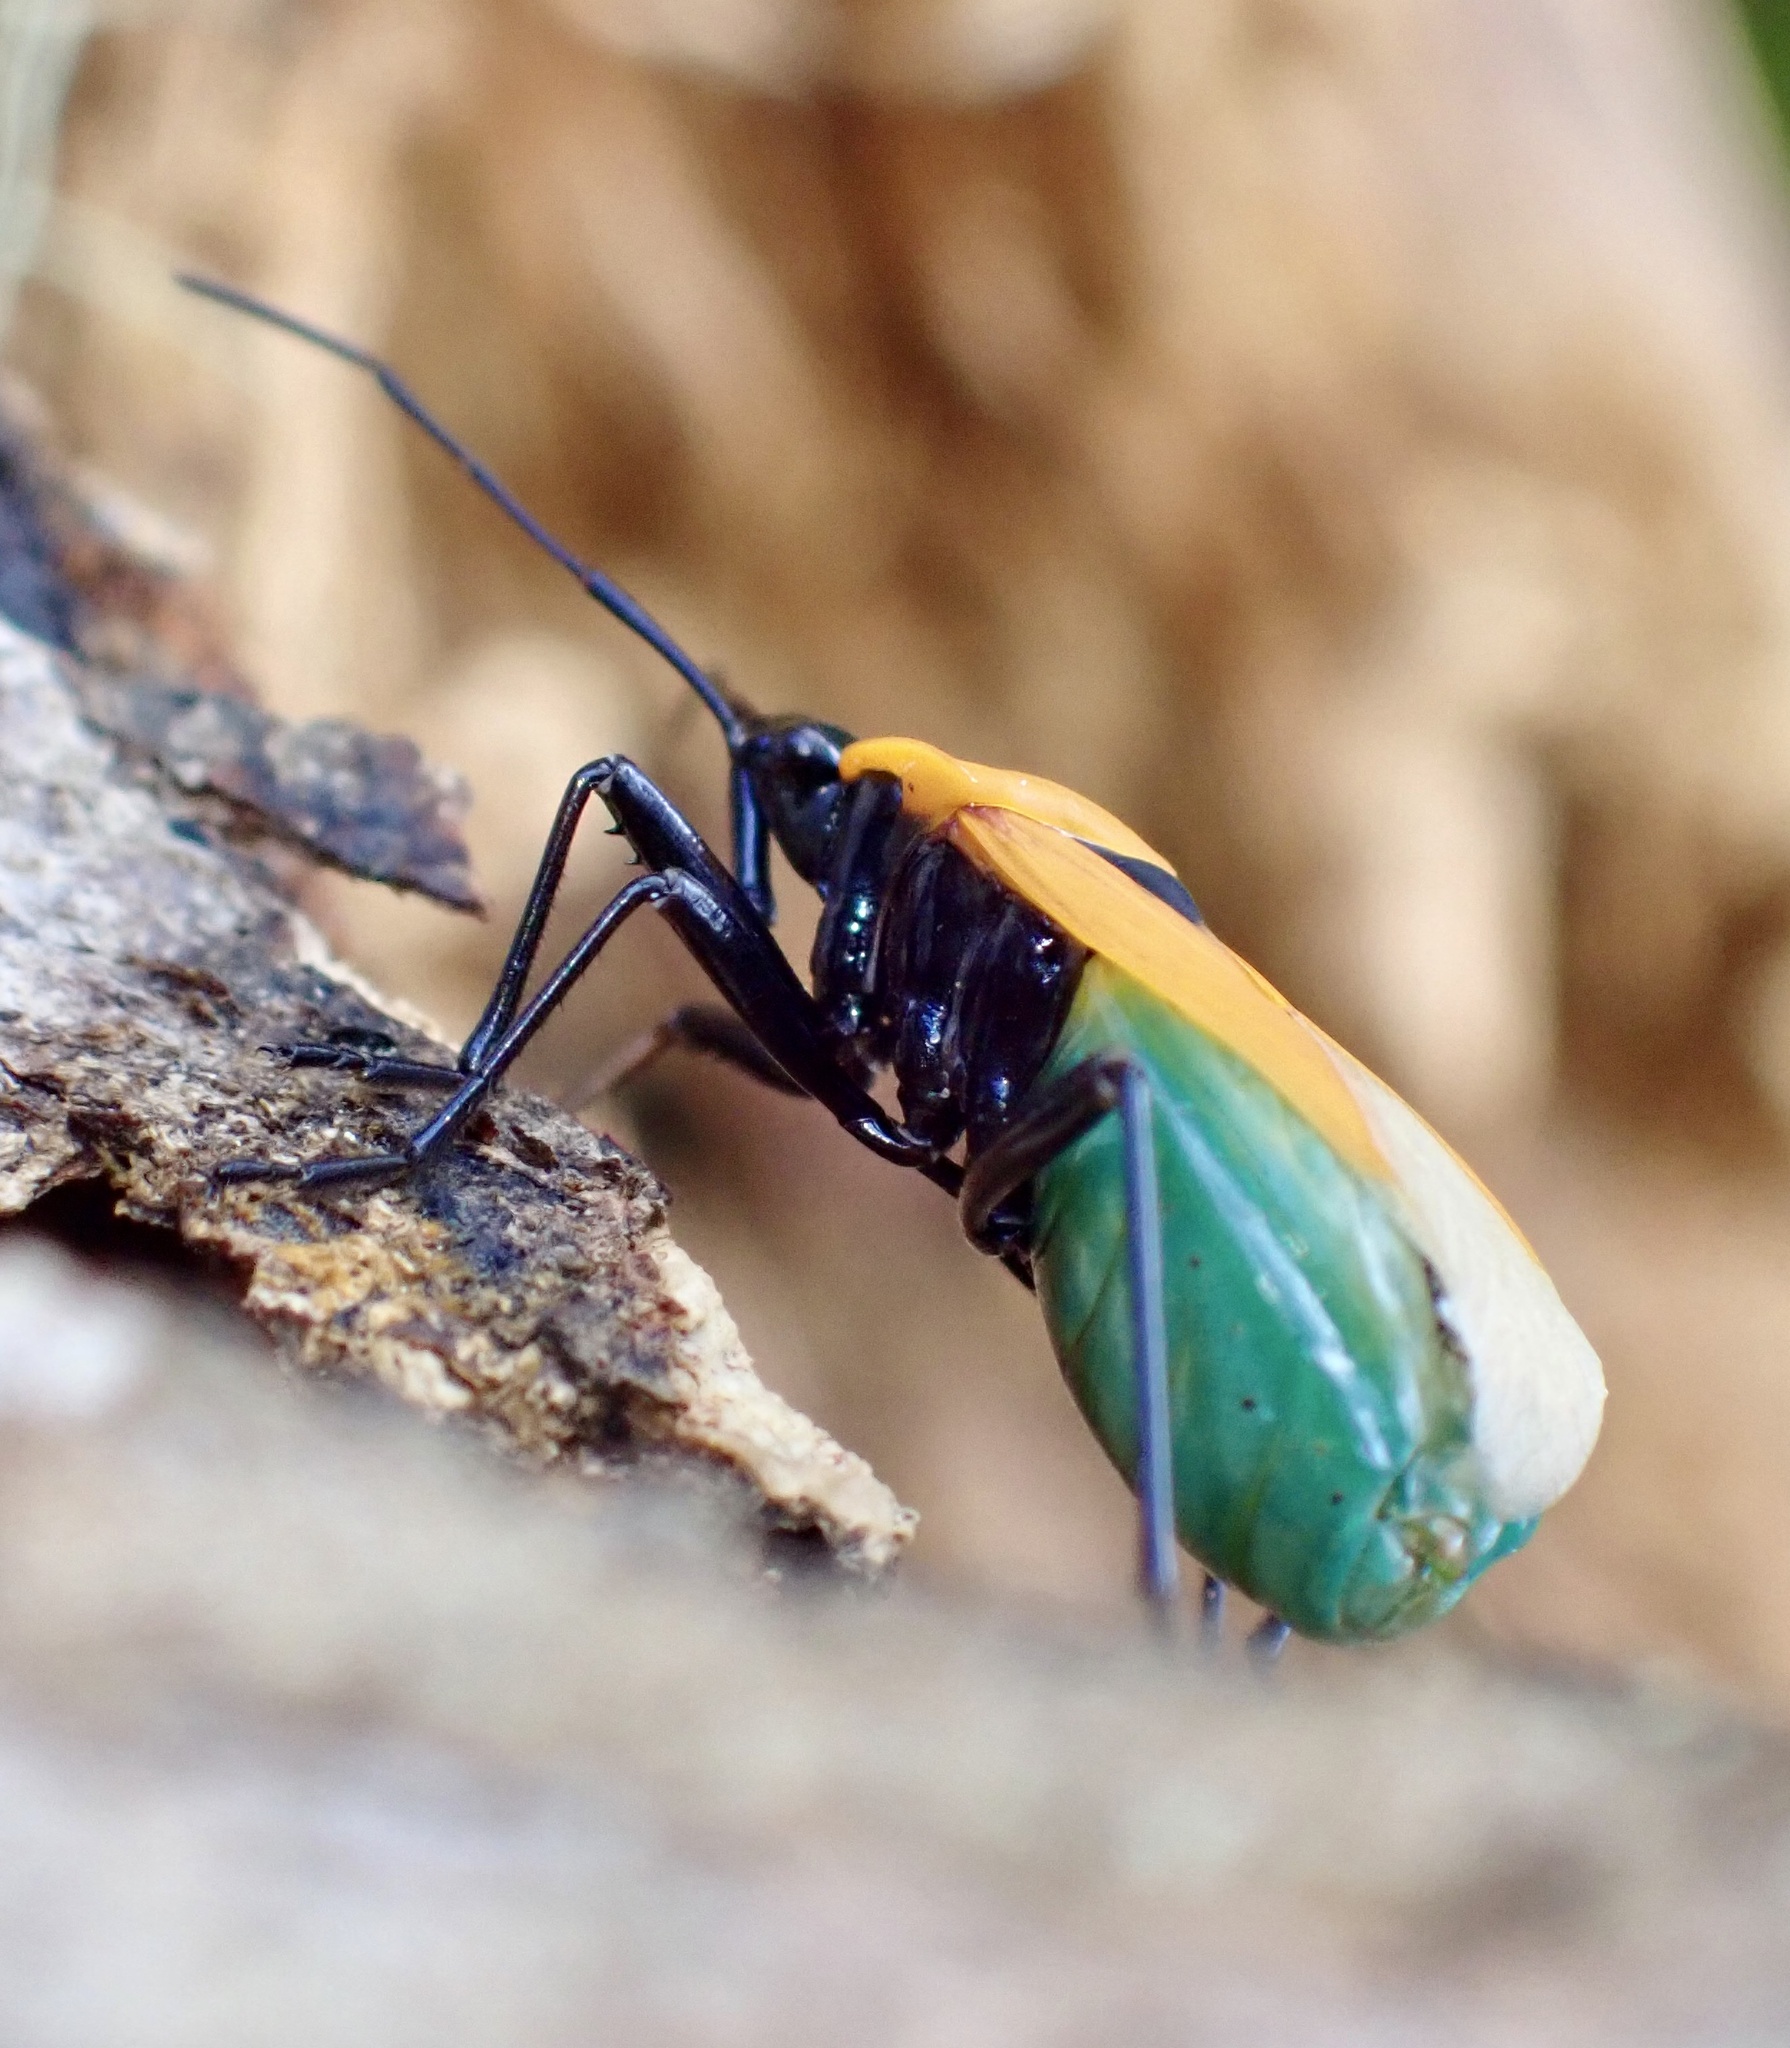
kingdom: Animalia
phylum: Arthropoda
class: Insecta
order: Hemiptera
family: Pyrrhocoridae
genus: Dindymus
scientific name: Dindymus
